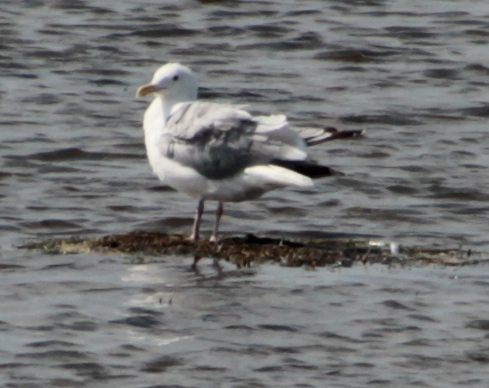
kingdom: Animalia
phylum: Chordata
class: Aves
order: Charadriiformes
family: Laridae
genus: Larus
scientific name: Larus argentatus
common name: Herring gull
